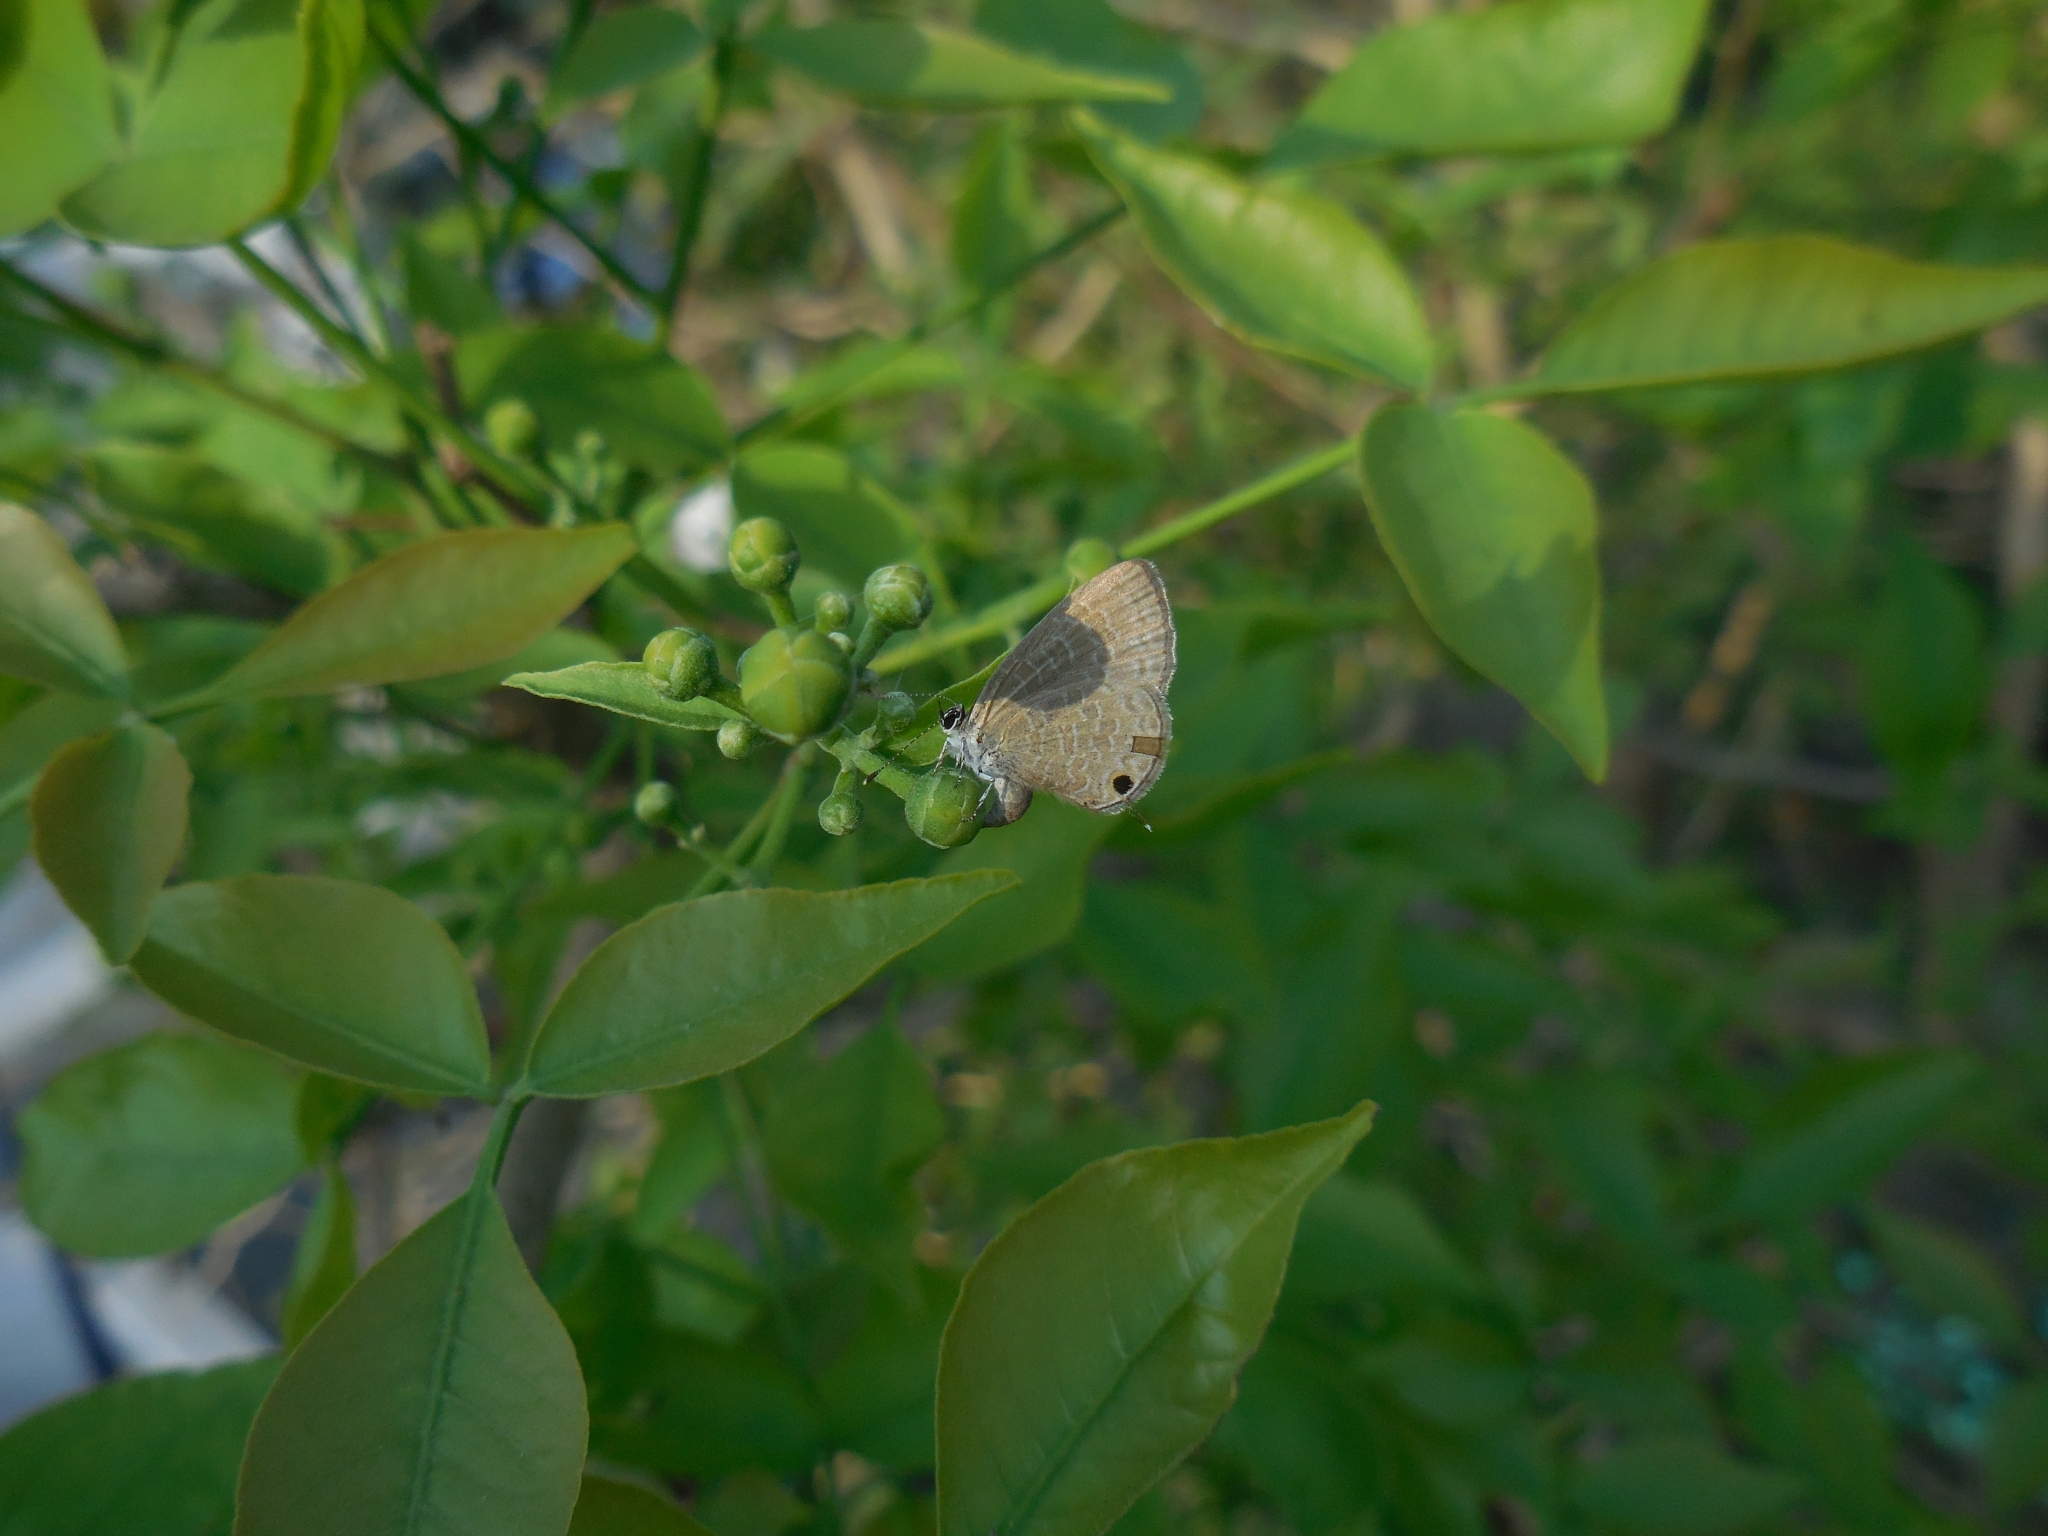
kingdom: Animalia
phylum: Arthropoda
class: Insecta
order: Lepidoptera
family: Lycaenidae
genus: Jamides
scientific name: Jamides alecto
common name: Metallic cerulean
